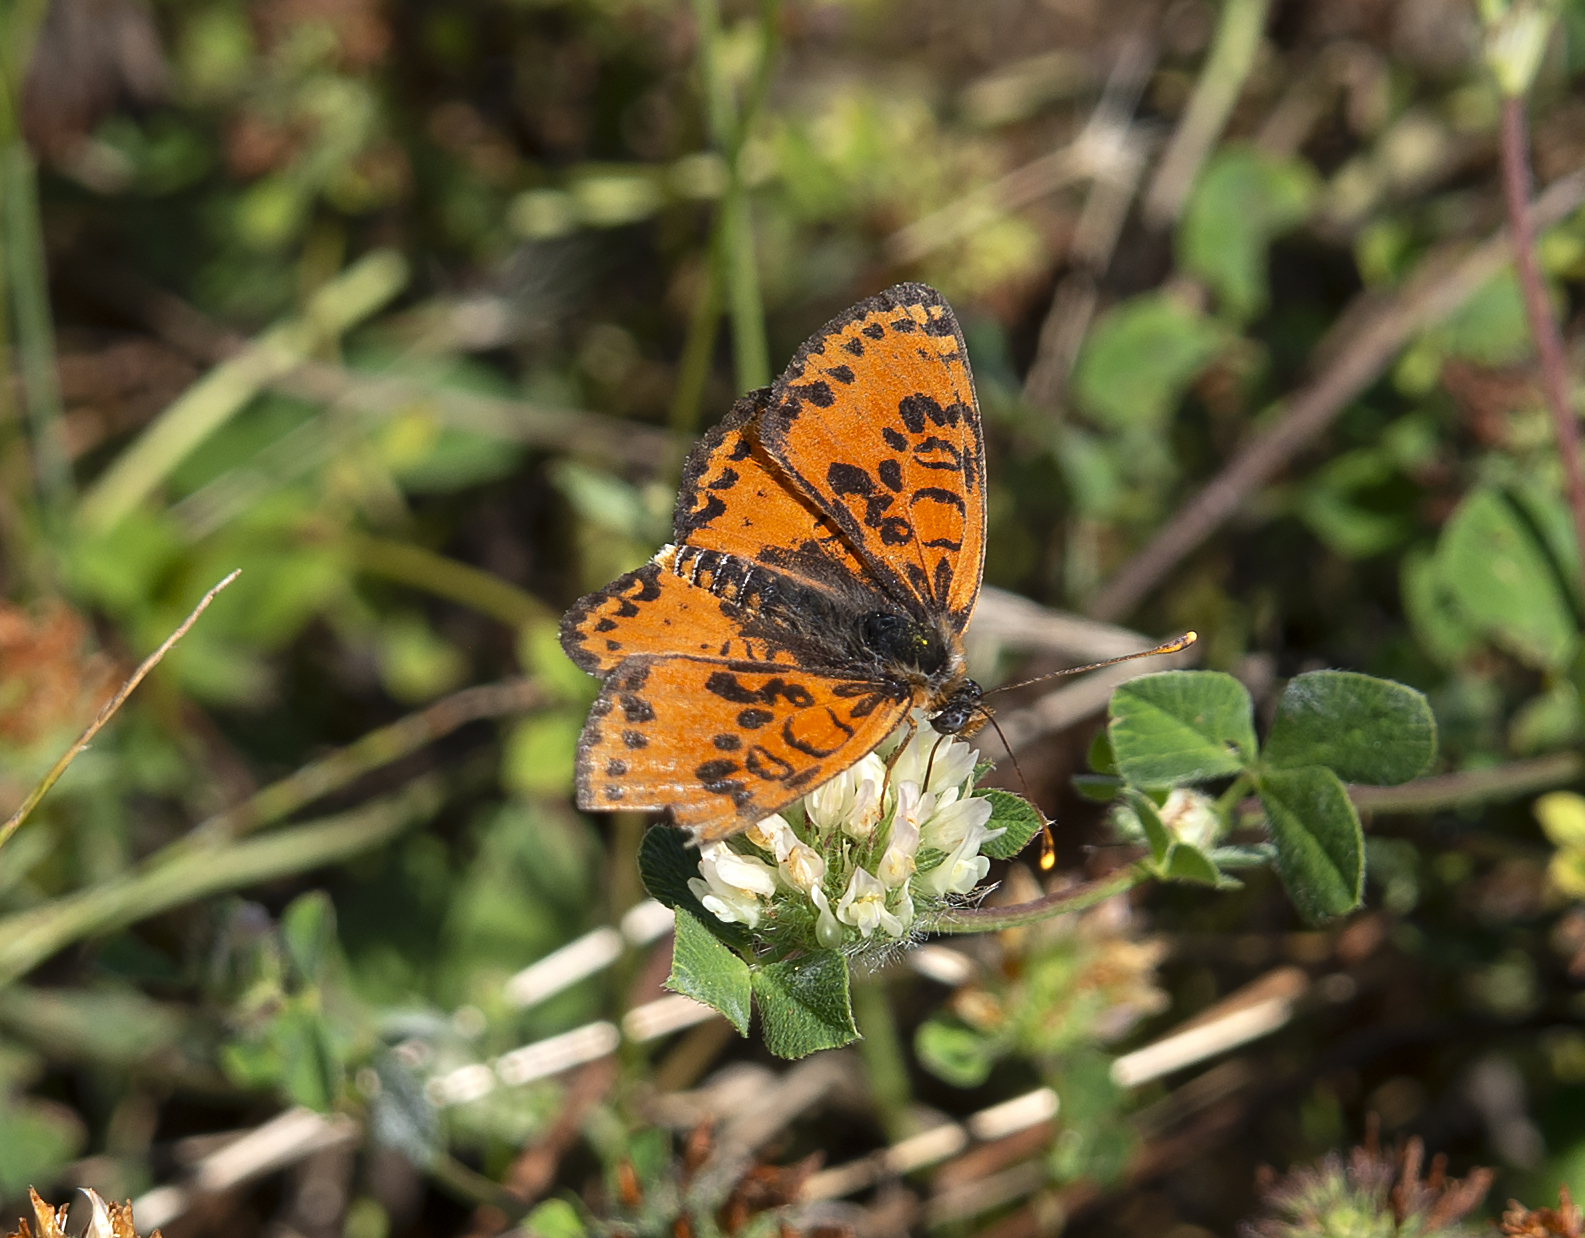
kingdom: Animalia
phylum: Arthropoda
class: Insecta
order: Lepidoptera
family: Nymphalidae
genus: Melitaea
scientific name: Melitaea didyma
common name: Spotted fritillary
